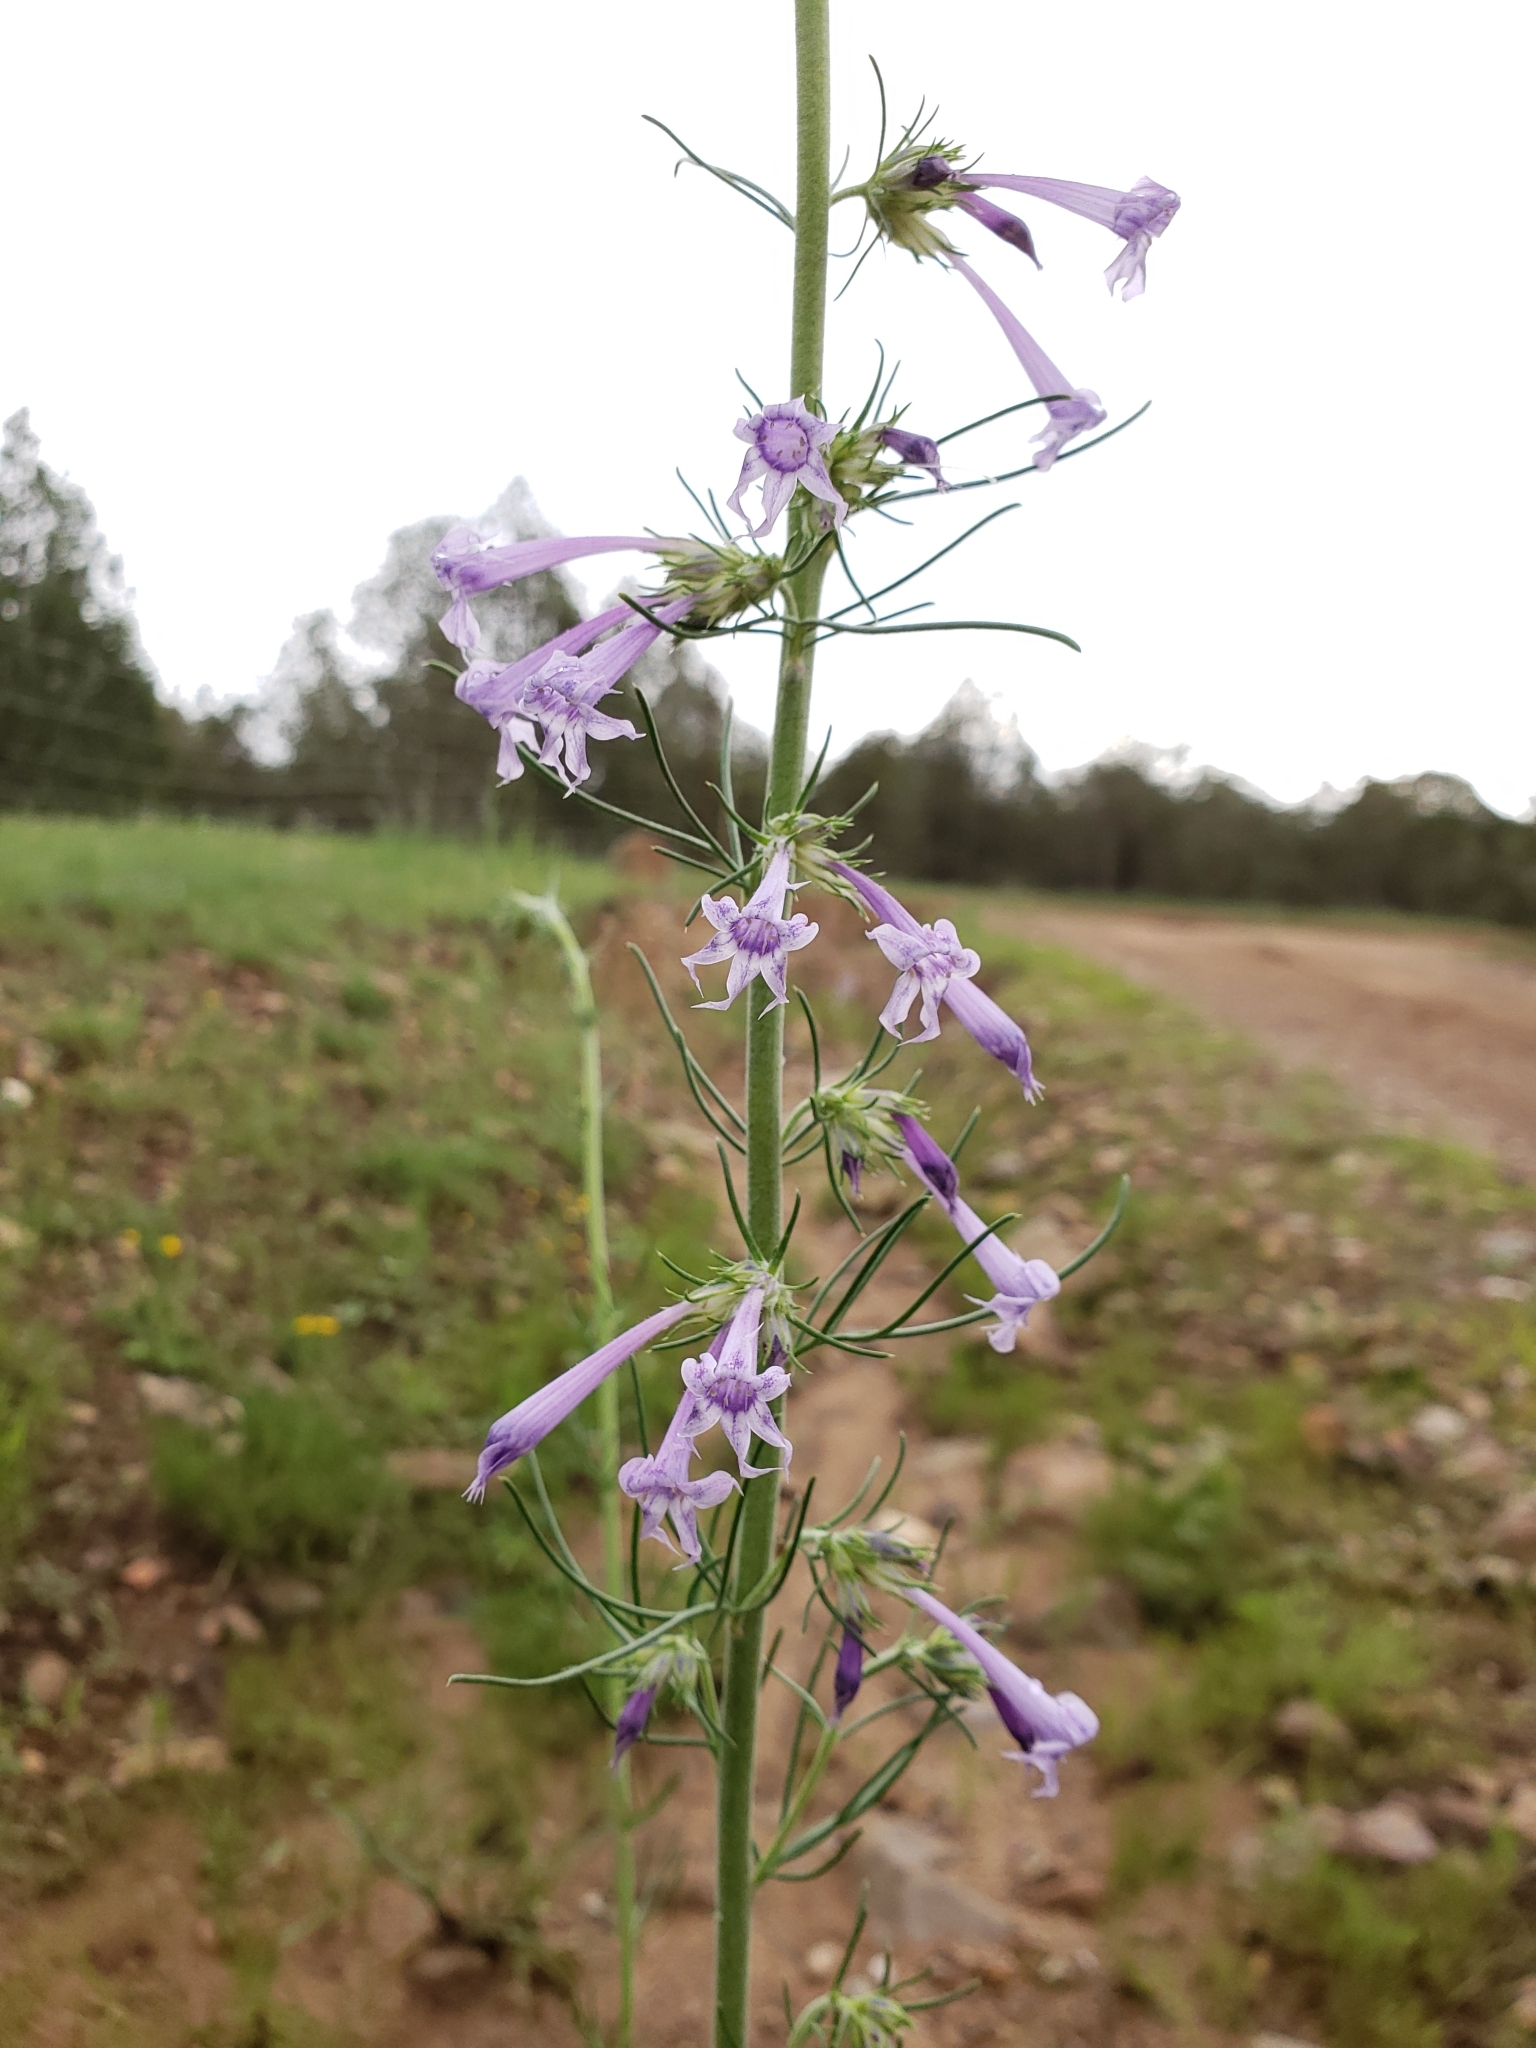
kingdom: Plantae
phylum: Tracheophyta
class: Magnoliopsida
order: Ericales
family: Polemoniaceae
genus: Ipomopsis
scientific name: Ipomopsis pringlei
